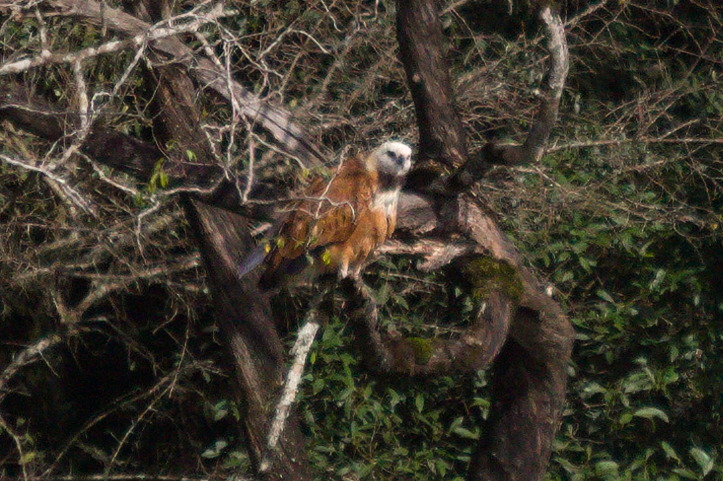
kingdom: Animalia
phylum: Chordata
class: Aves
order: Accipitriformes
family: Accipitridae
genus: Busarellus
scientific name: Busarellus nigricollis
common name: Black-collared hawk
